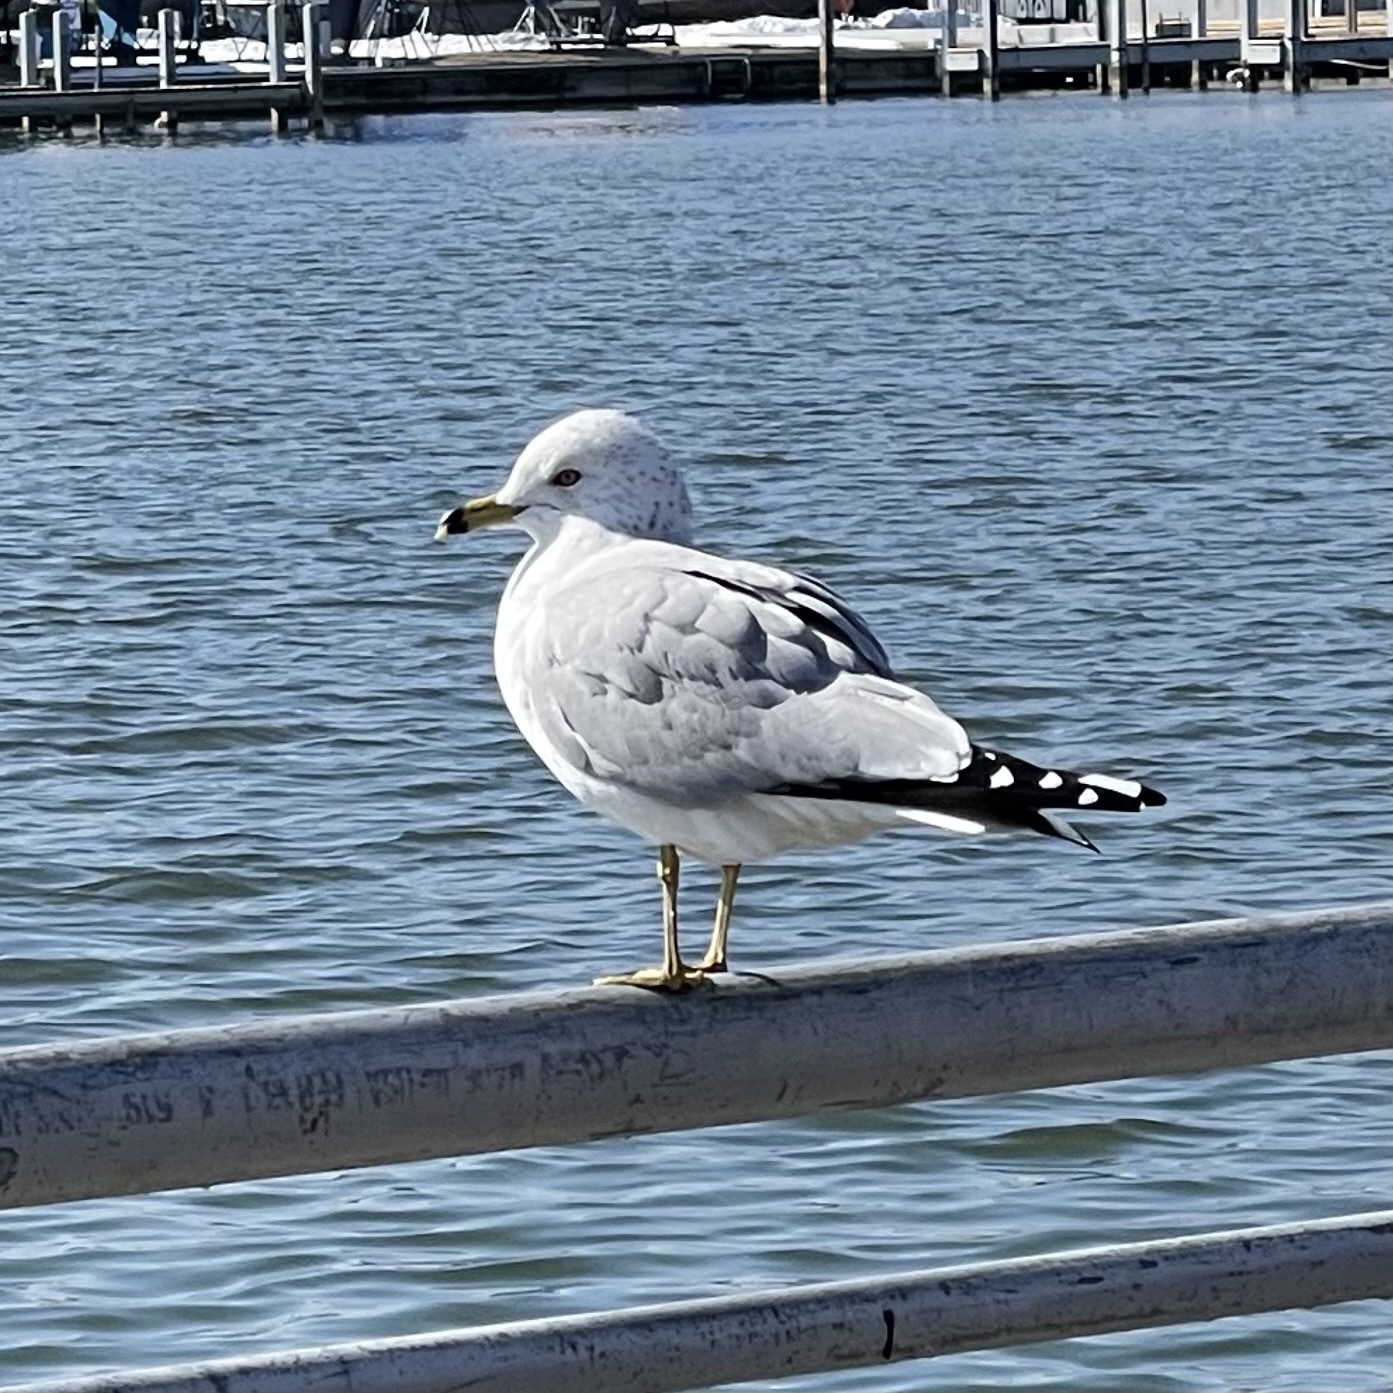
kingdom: Animalia
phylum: Chordata
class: Aves
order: Charadriiformes
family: Laridae
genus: Larus
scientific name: Larus delawarensis
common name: Ring-billed gull
